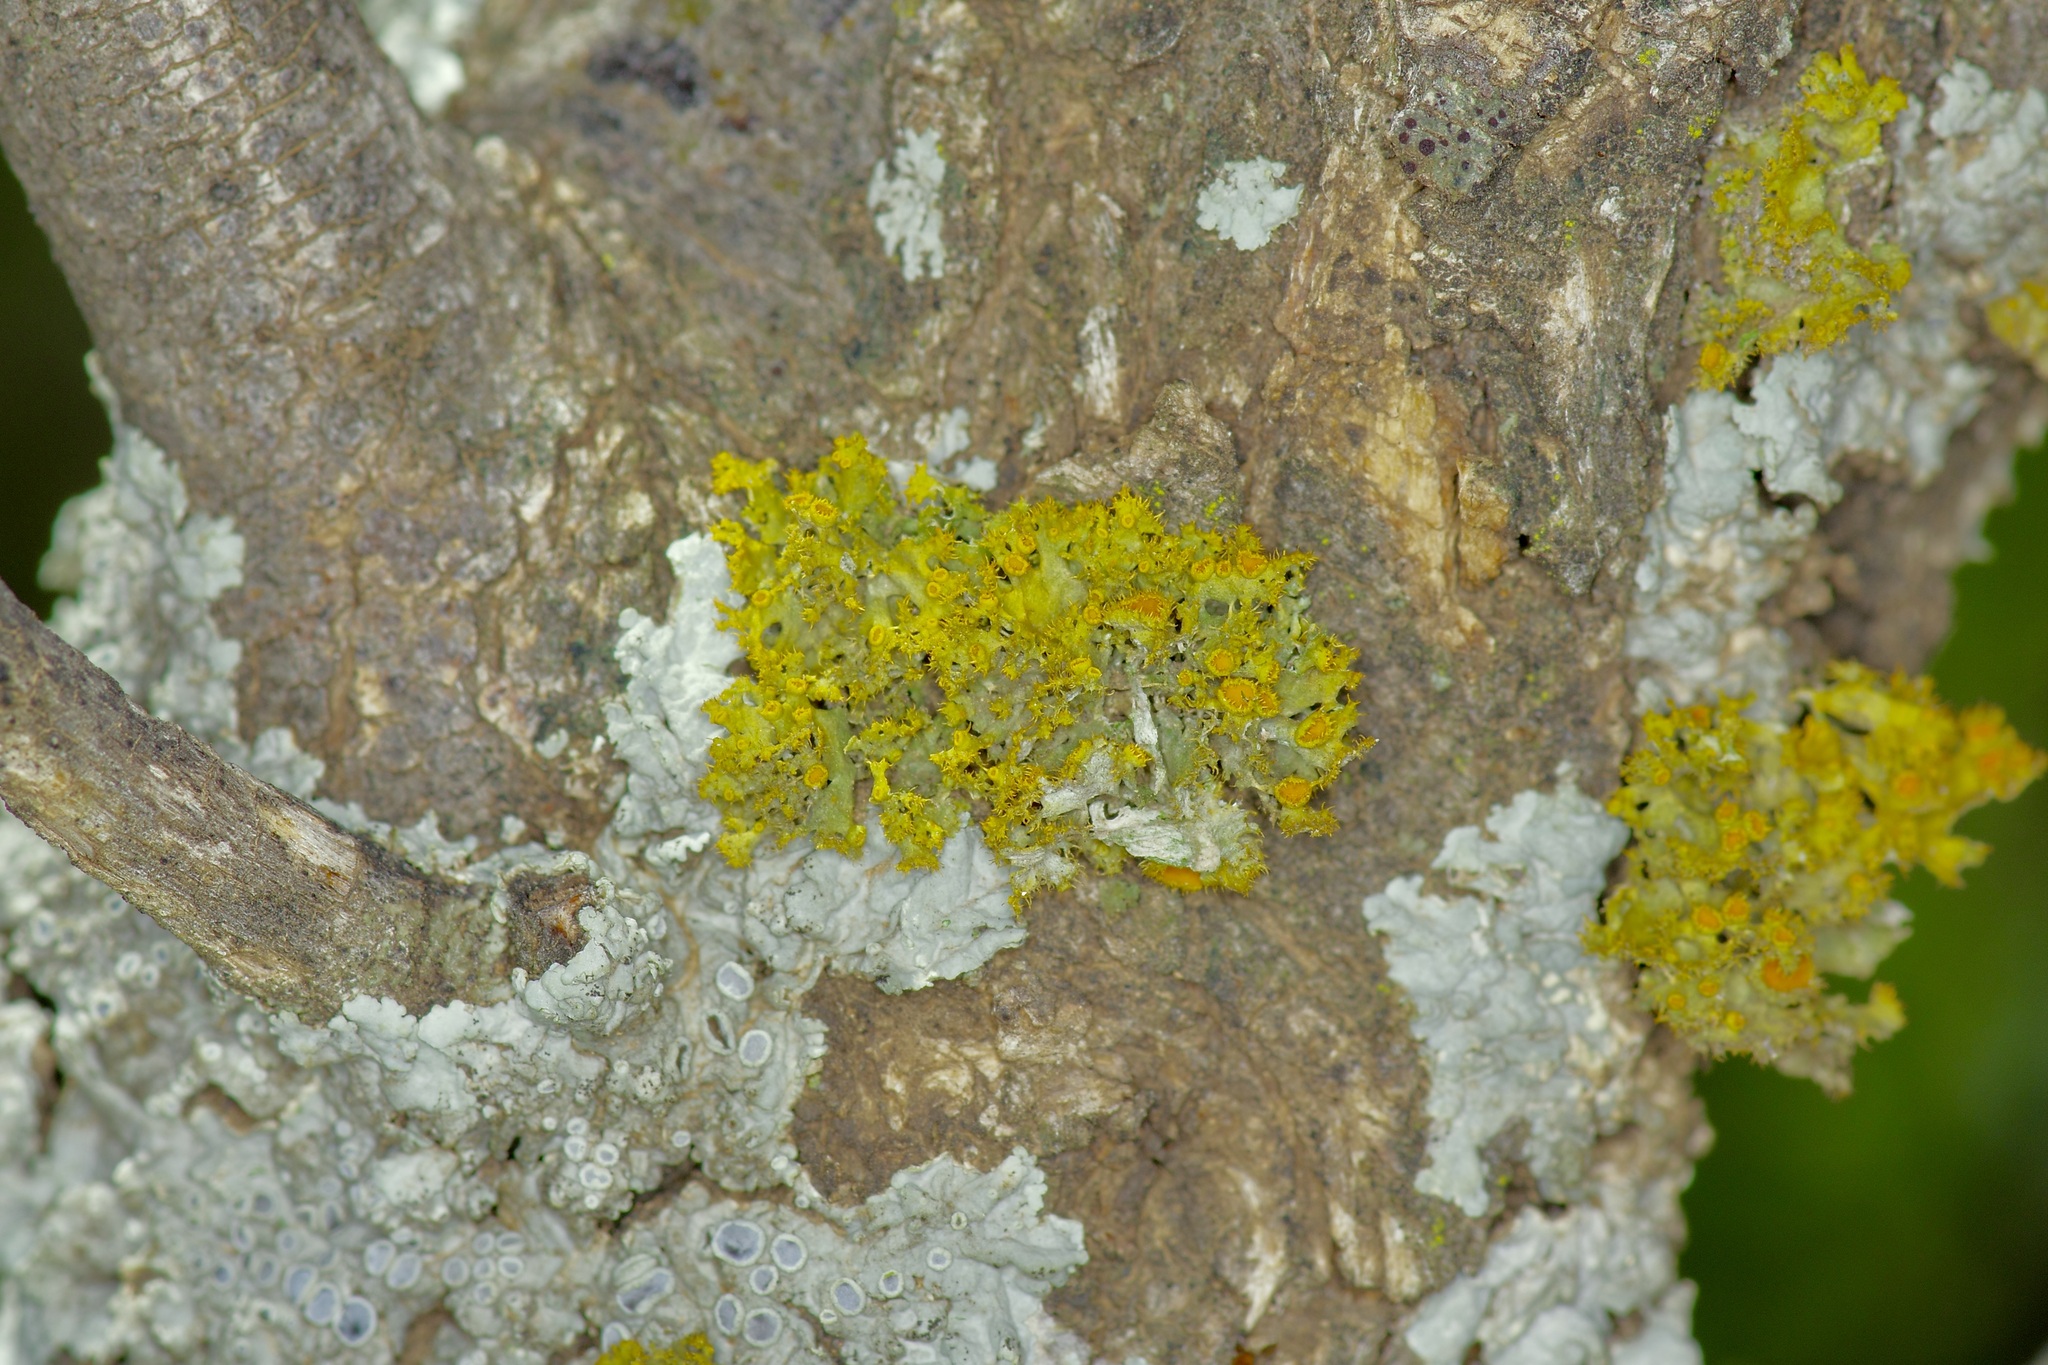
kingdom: Fungi
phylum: Ascomycota
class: Lecanoromycetes
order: Teloschistales
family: Teloschistaceae
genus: Niorma
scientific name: Niorma chrysophthalma
